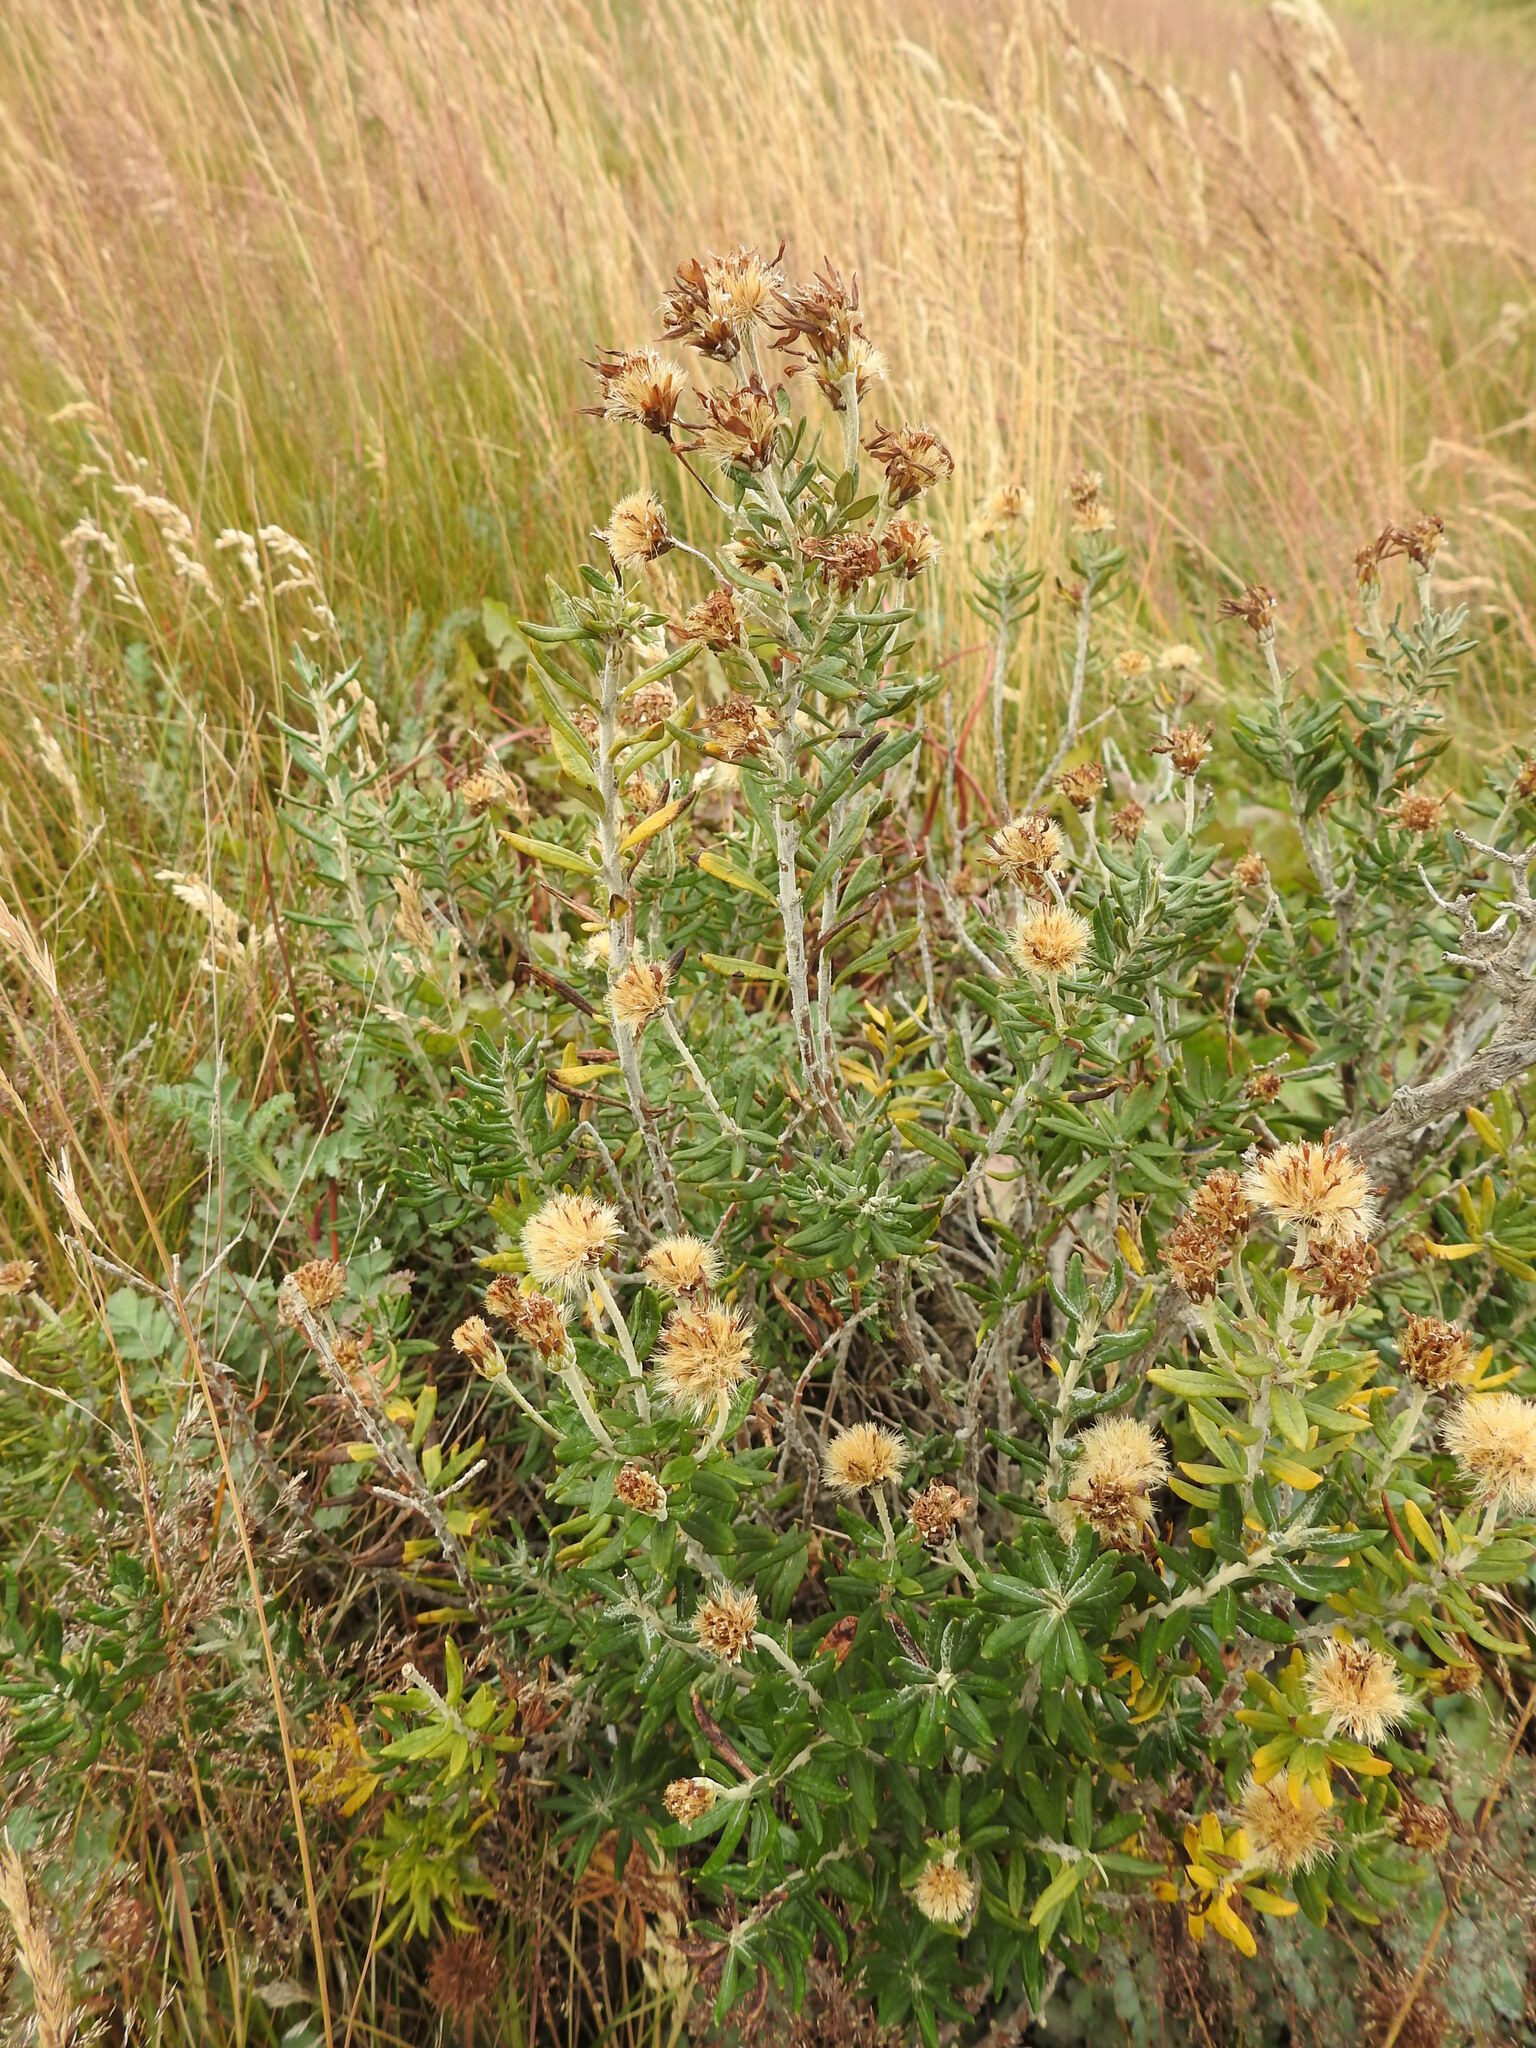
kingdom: Plantae
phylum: Tracheophyta
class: Magnoliopsida
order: Asterales
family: Asteraceae
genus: Chiliotrichum
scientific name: Chiliotrichum diffusum
